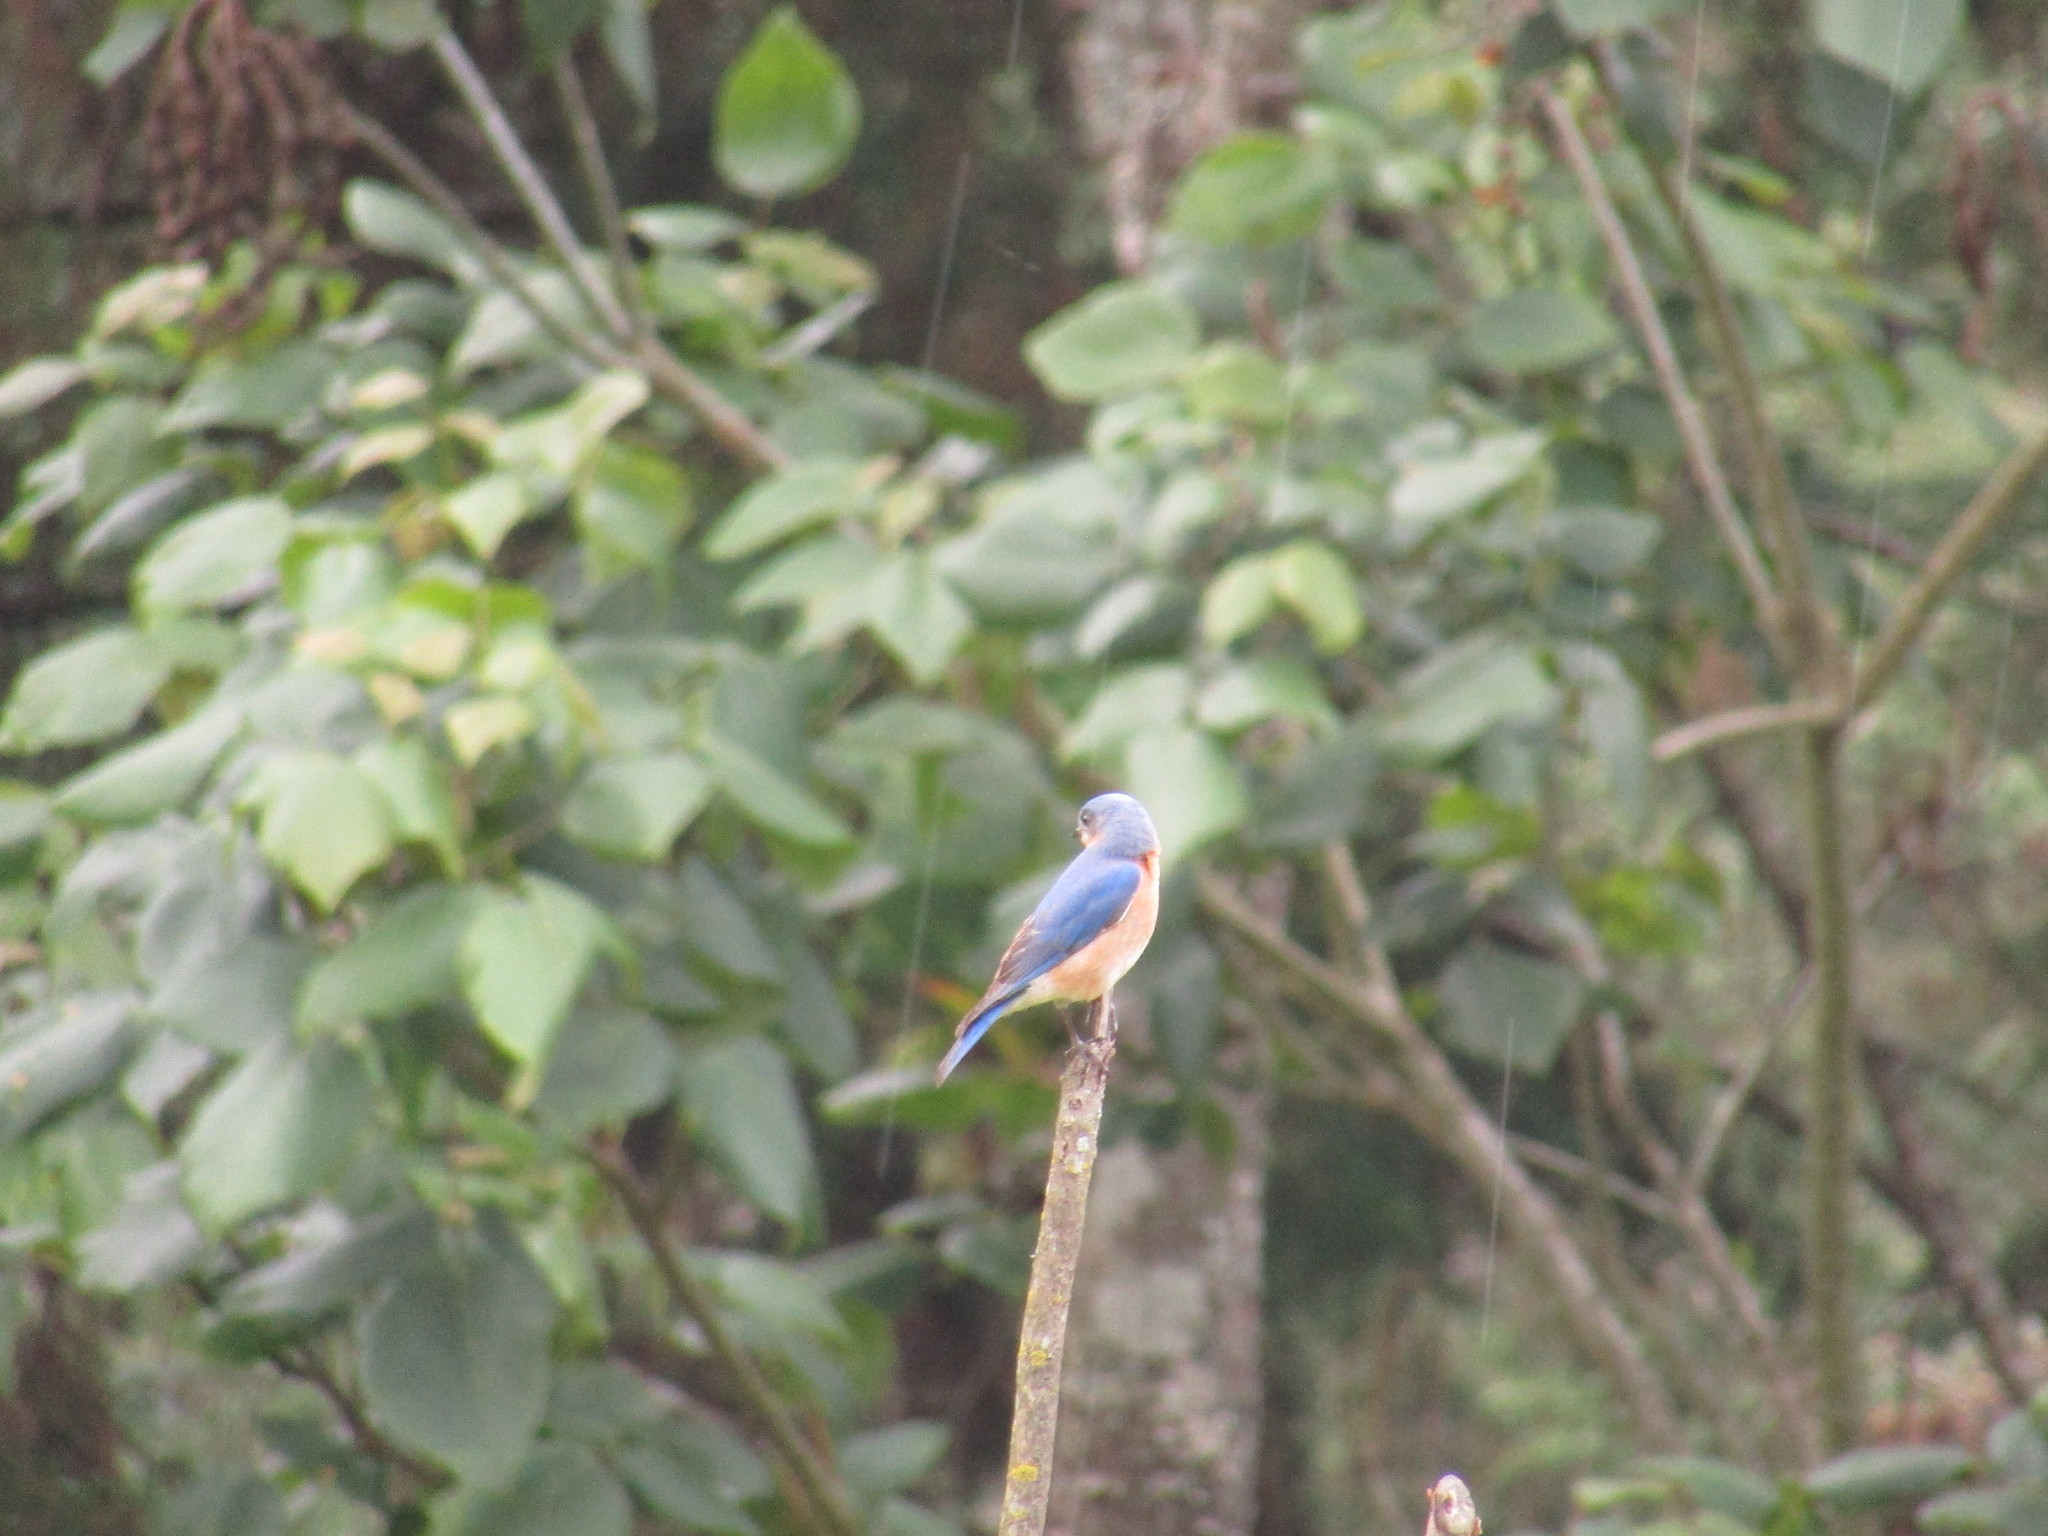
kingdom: Animalia
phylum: Chordata
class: Aves
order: Passeriformes
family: Turdidae
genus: Sialia
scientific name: Sialia sialis
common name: Eastern bluebird
